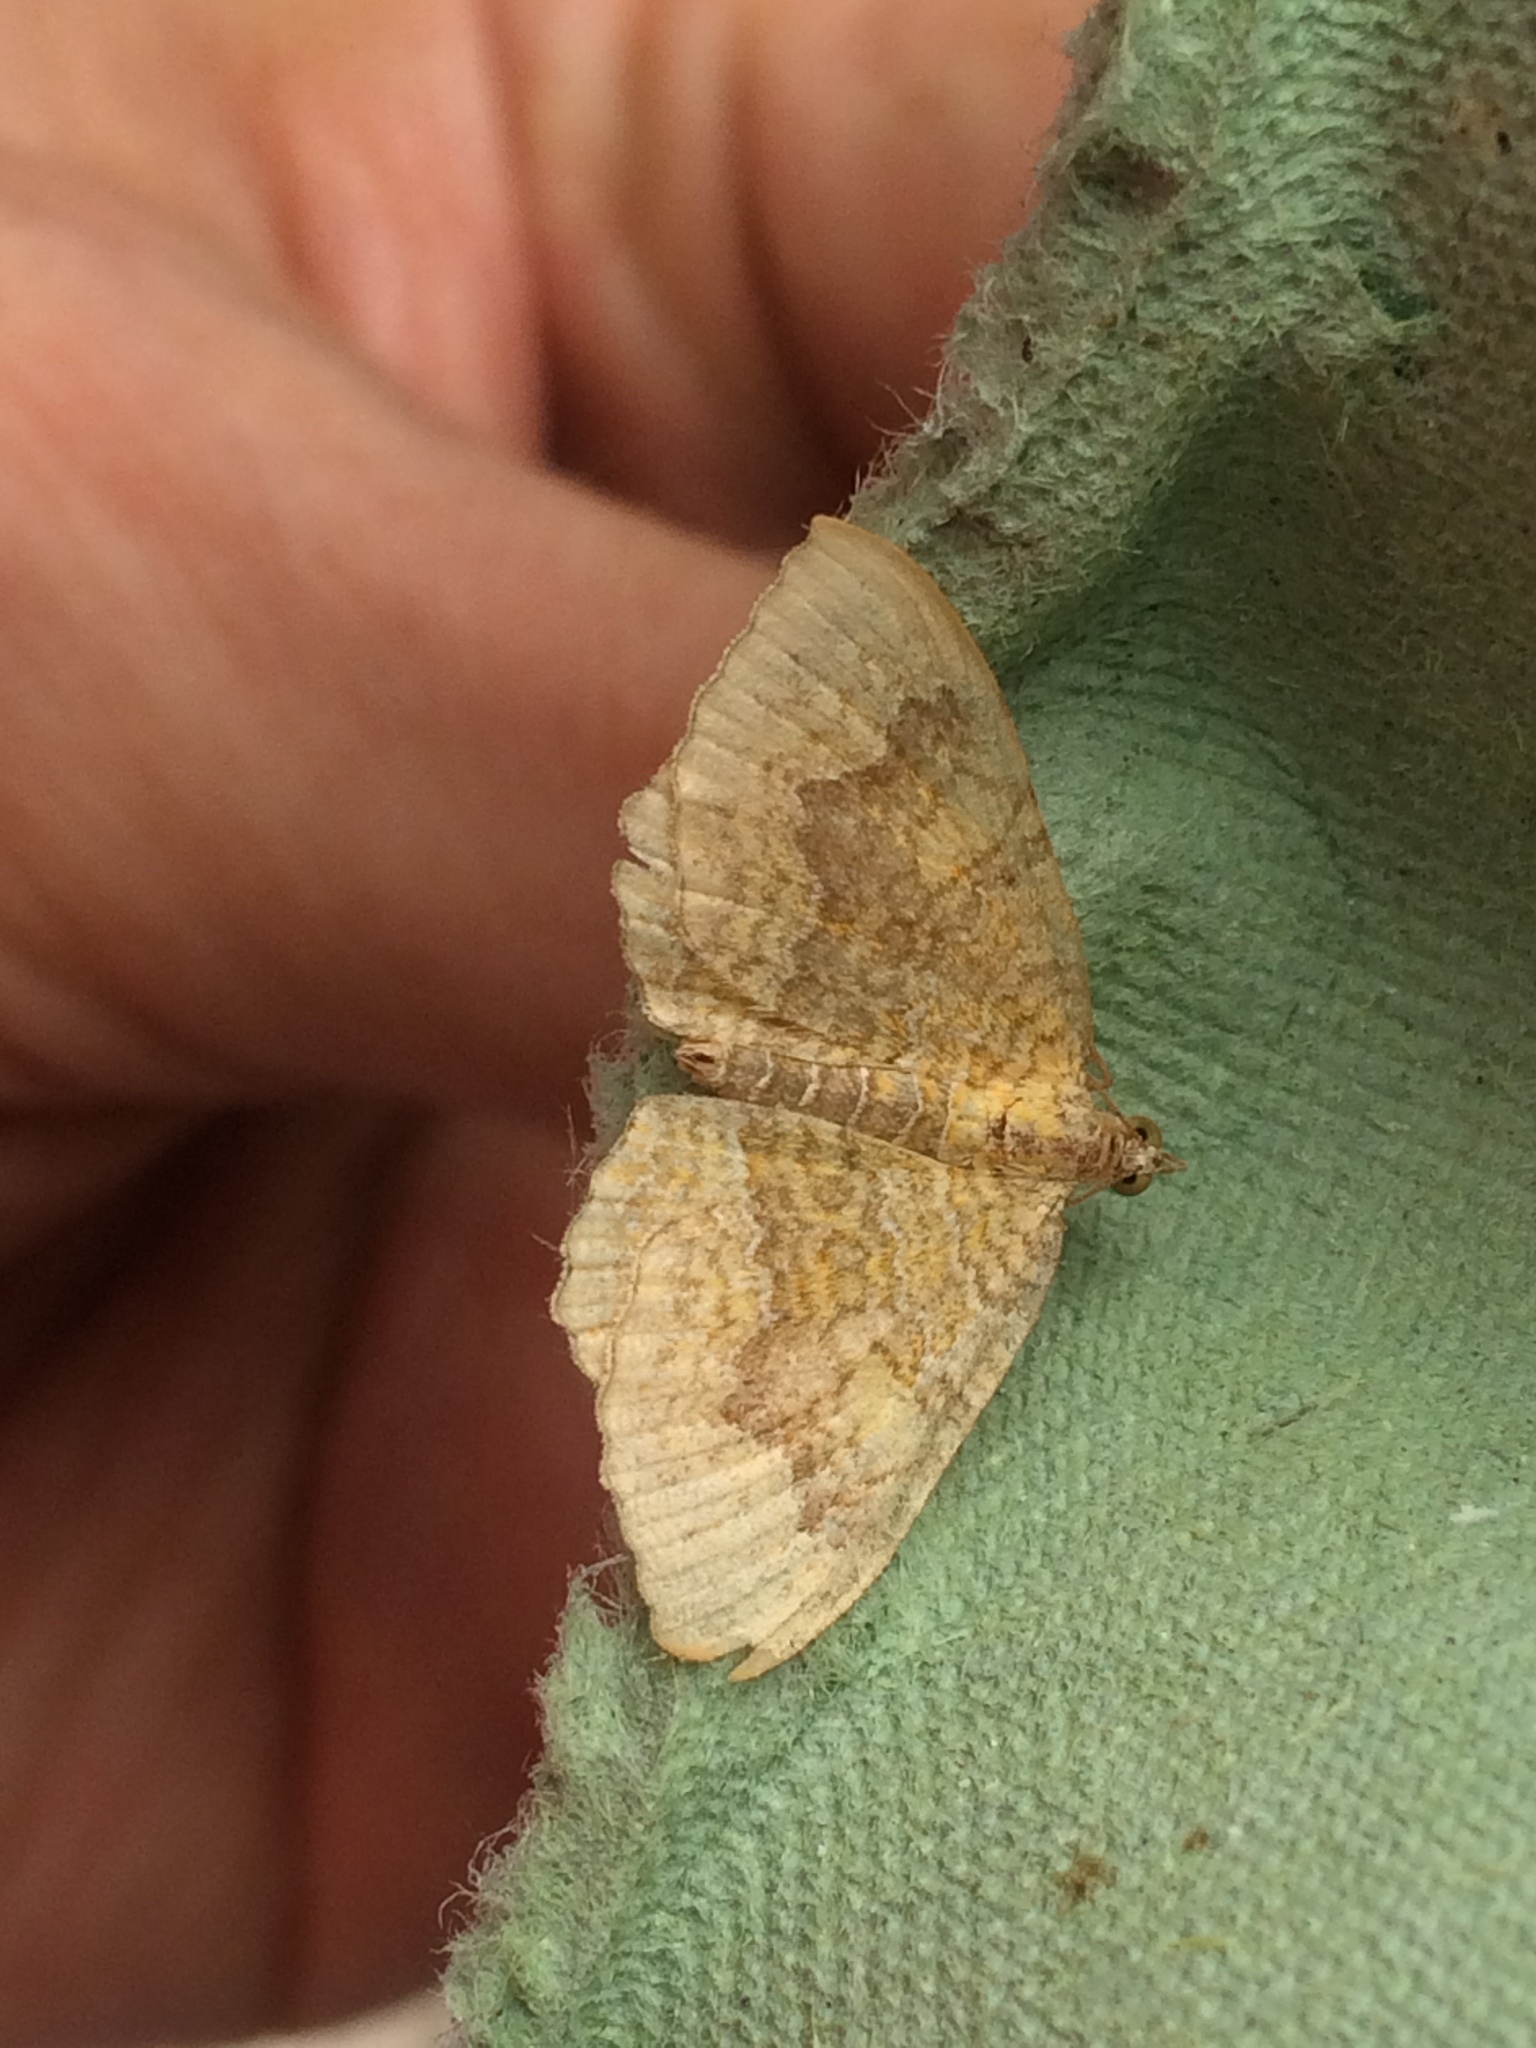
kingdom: Animalia
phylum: Arthropoda
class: Insecta
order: Lepidoptera
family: Geometridae
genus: Camptogramma
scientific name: Camptogramma bilineata
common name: Yellow shell
